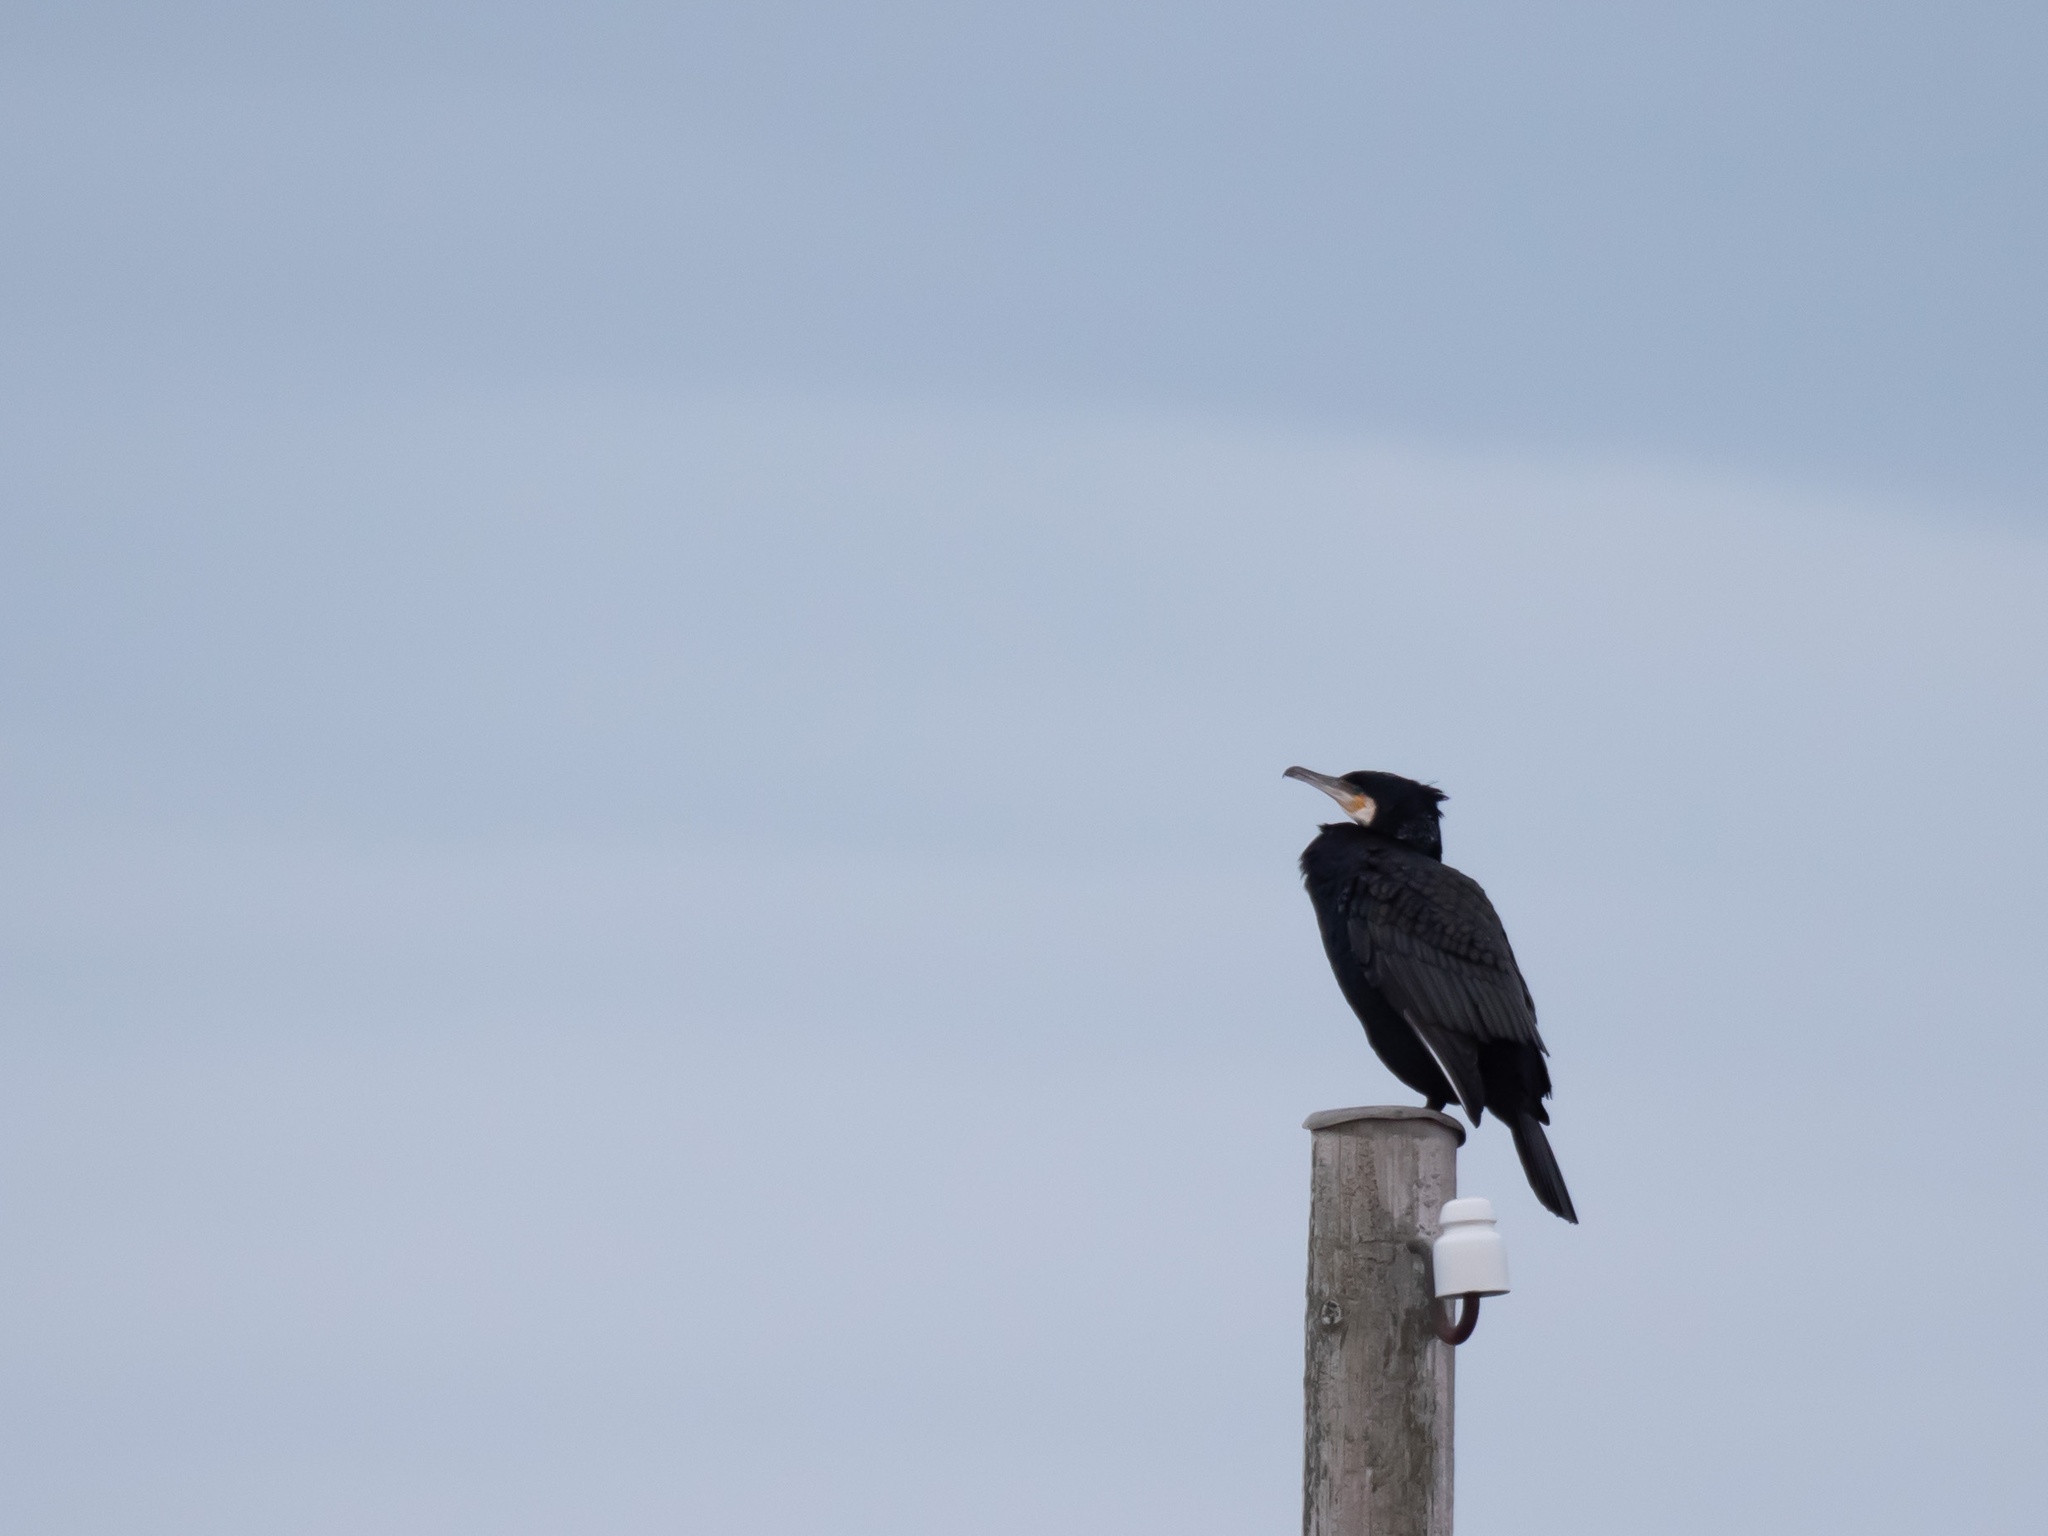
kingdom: Animalia
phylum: Chordata
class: Aves
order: Suliformes
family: Phalacrocoracidae
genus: Phalacrocorax
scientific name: Phalacrocorax carbo
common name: Great cormorant
